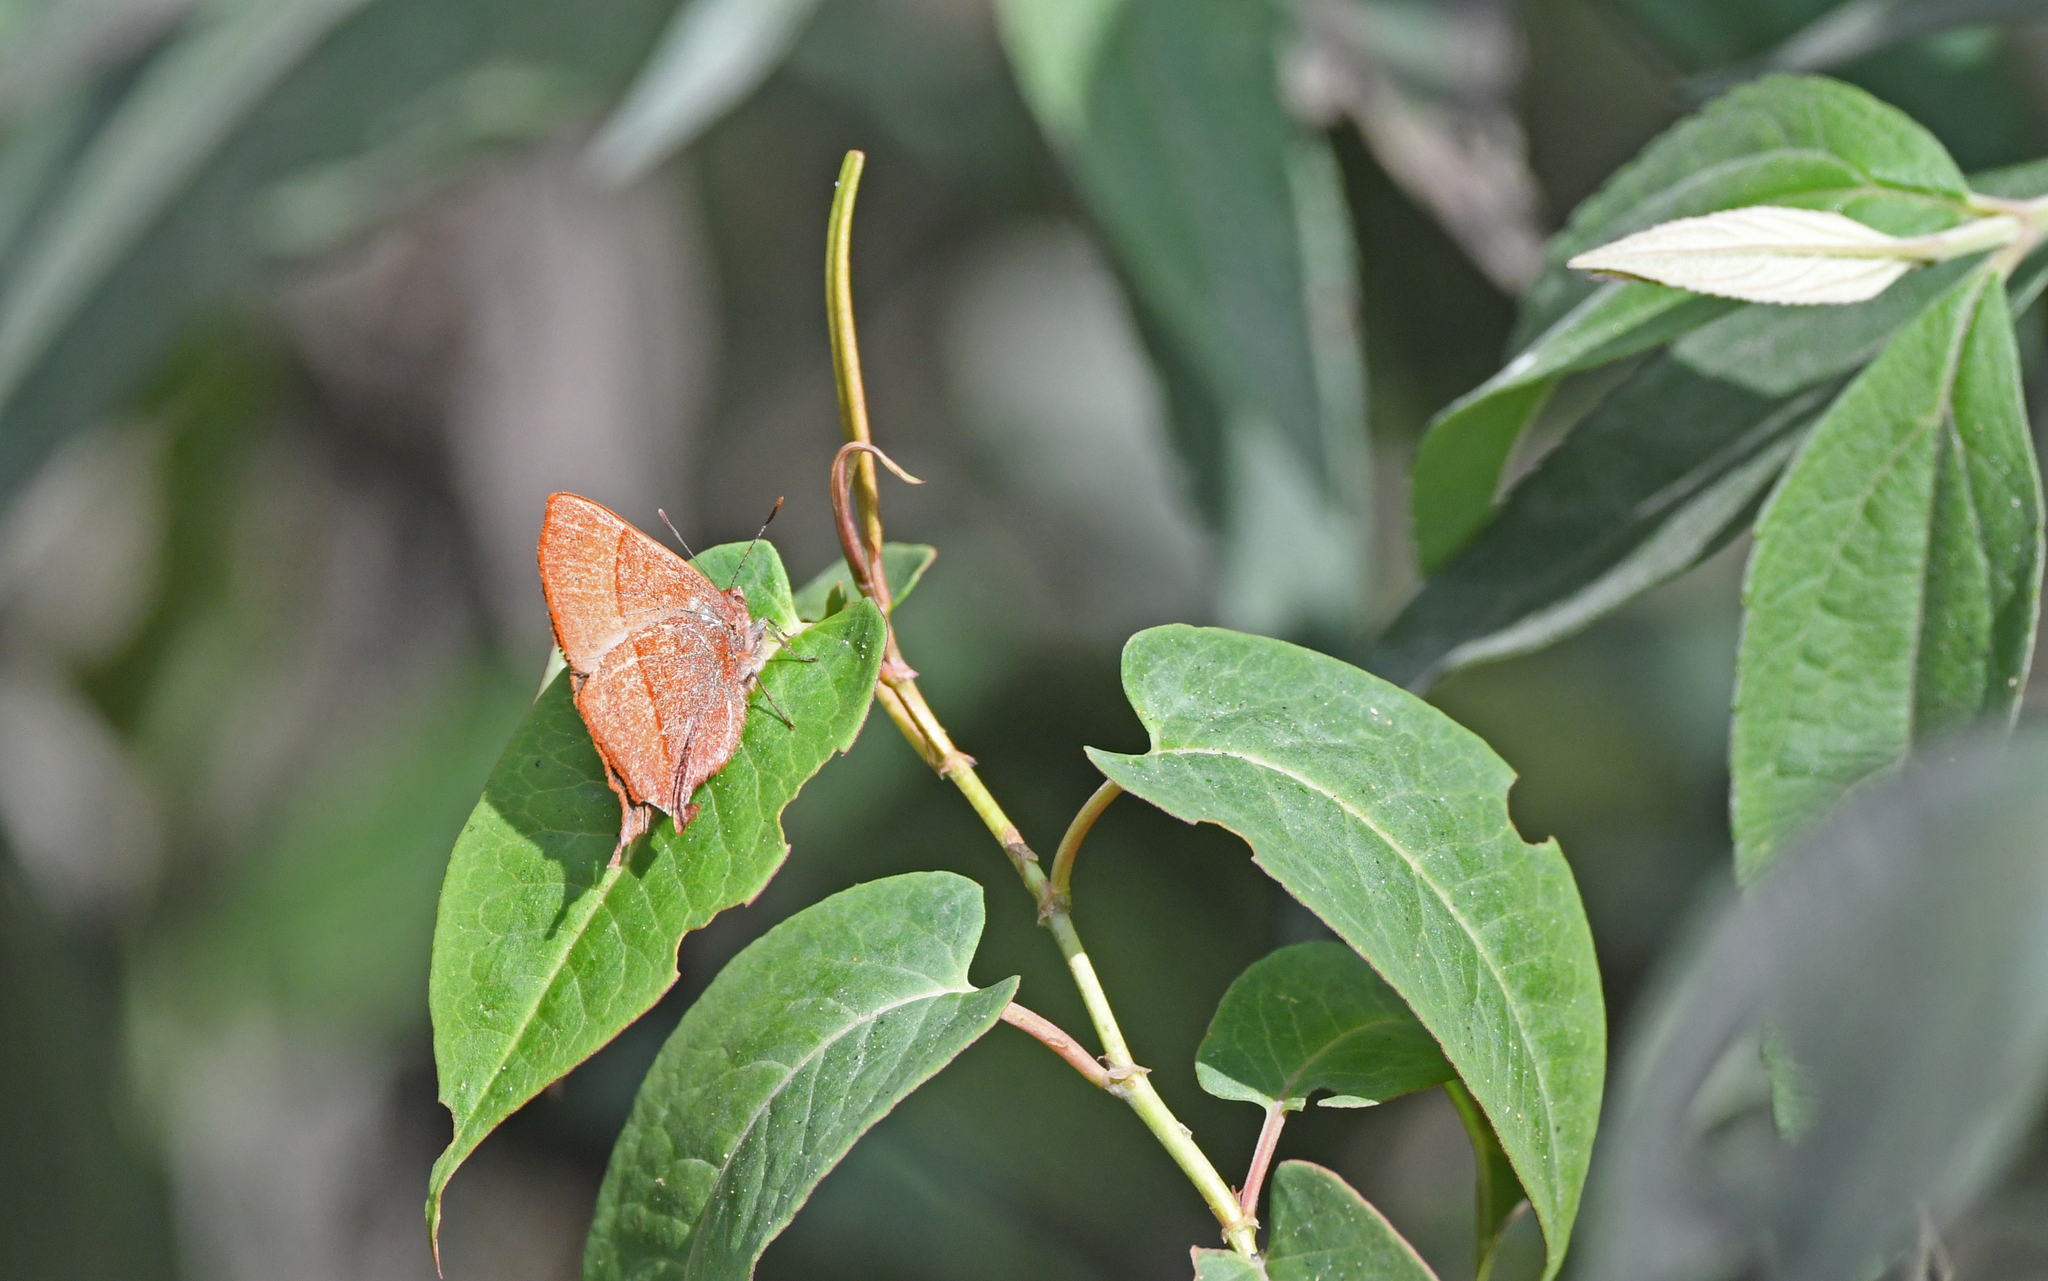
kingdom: Animalia
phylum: Arthropoda
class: Insecta
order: Lepidoptera
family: Lycaenidae
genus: Penaincisalia
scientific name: Penaincisalia loxurina
